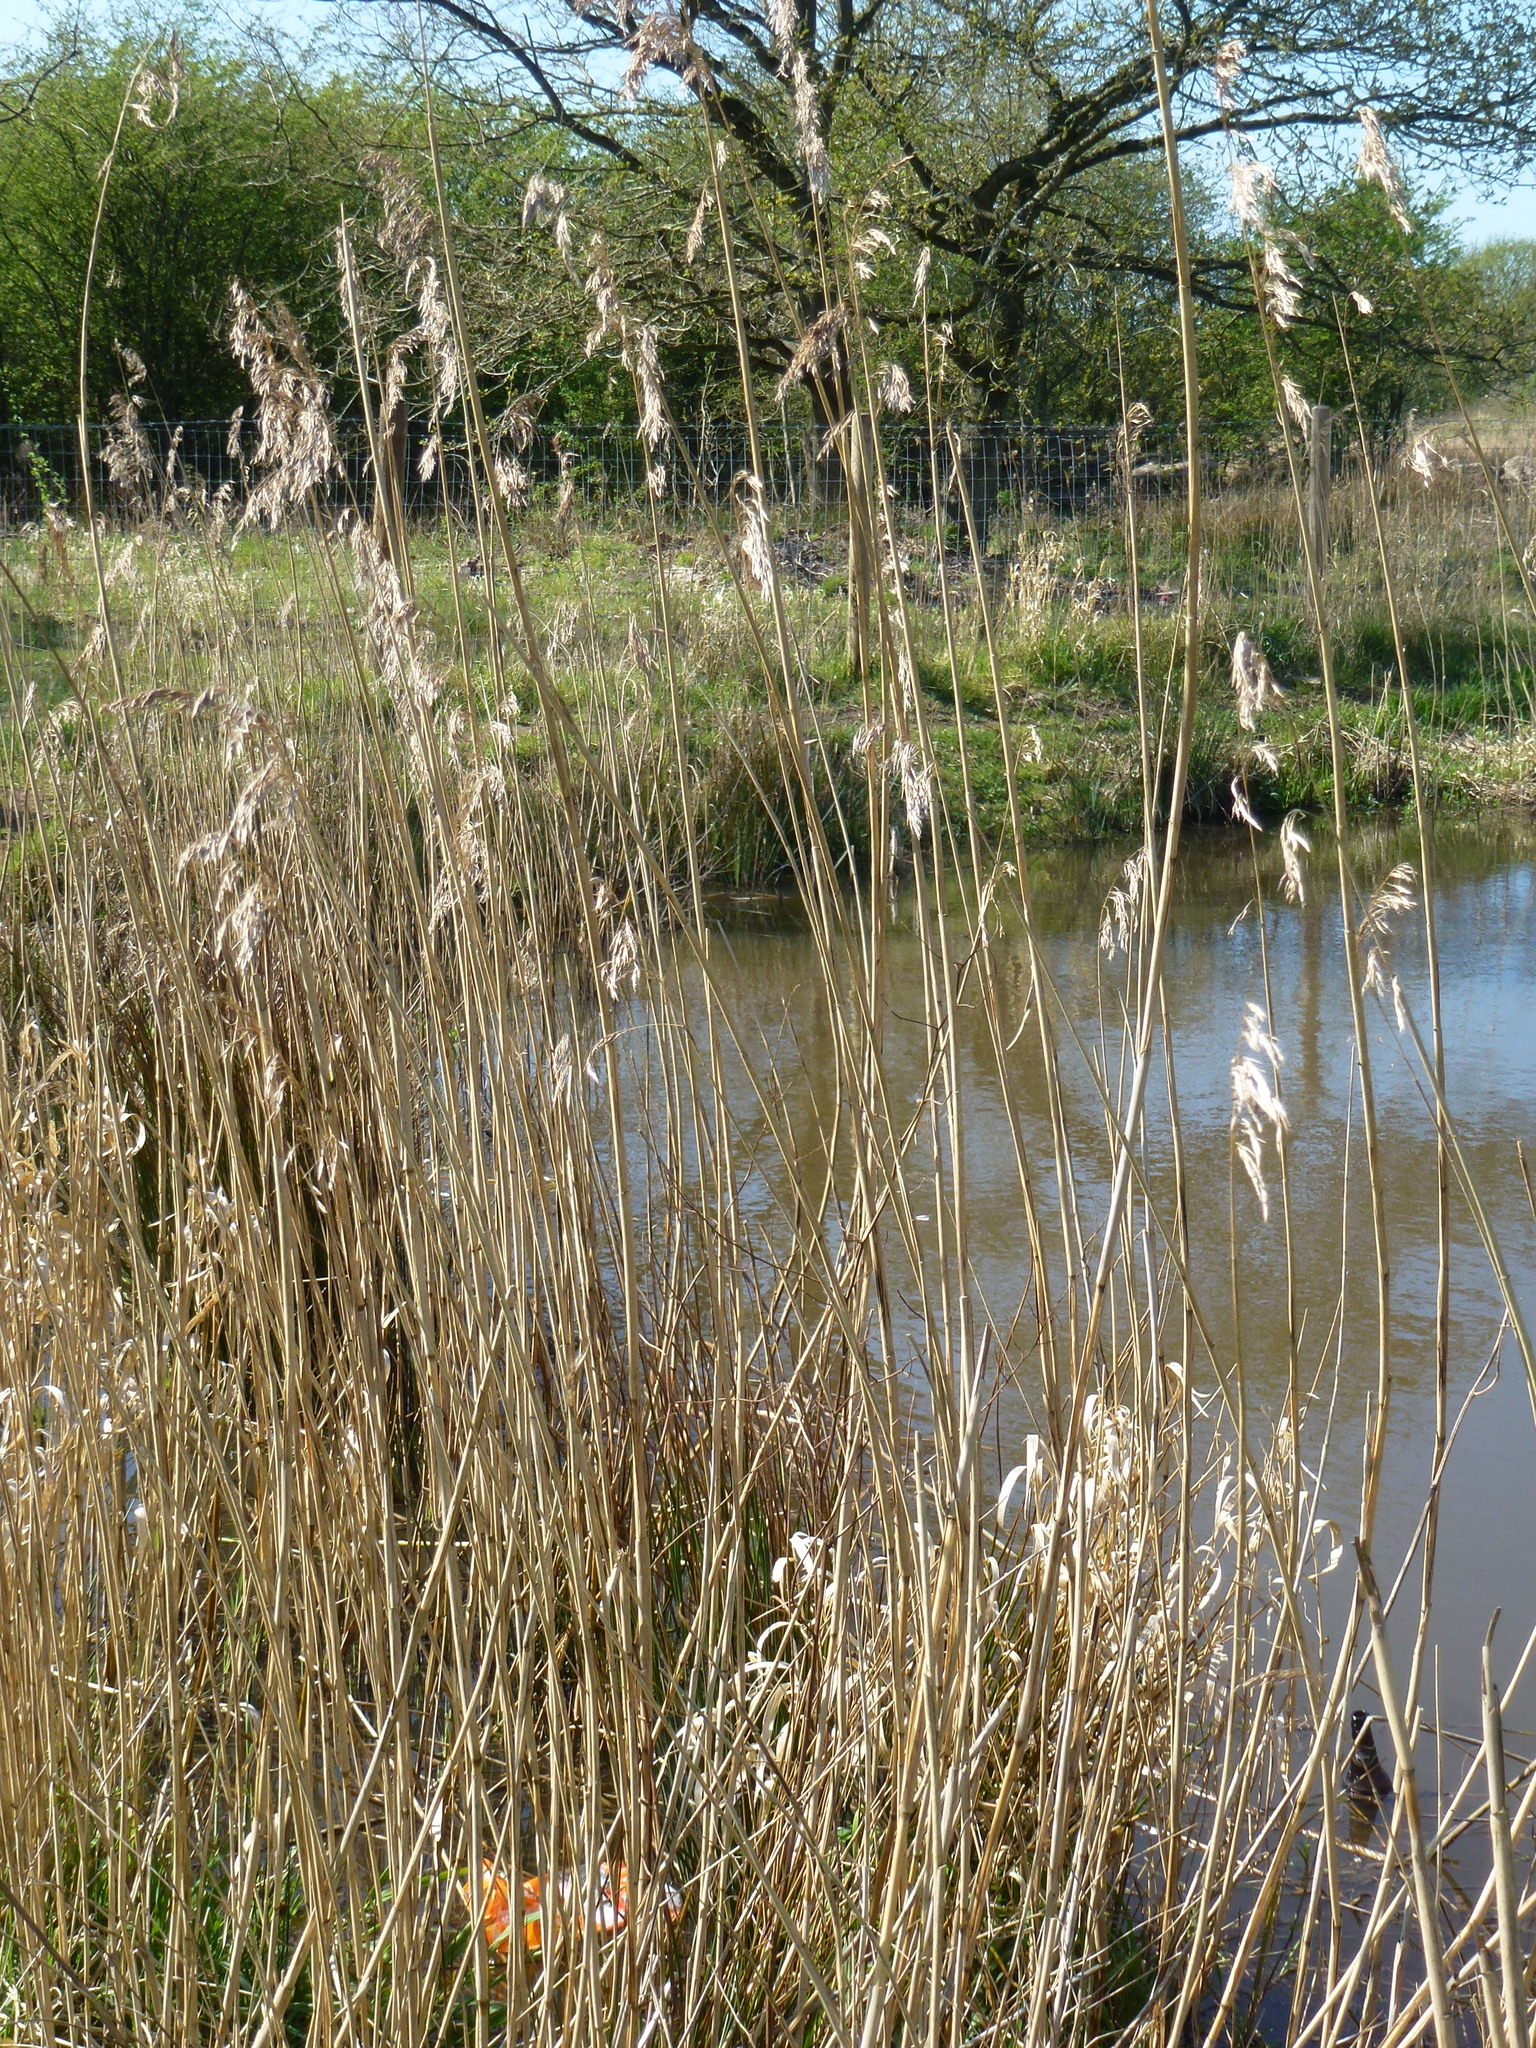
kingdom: Plantae
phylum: Tracheophyta
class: Liliopsida
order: Poales
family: Poaceae
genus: Phragmites
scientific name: Phragmites australis
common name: Common reed
